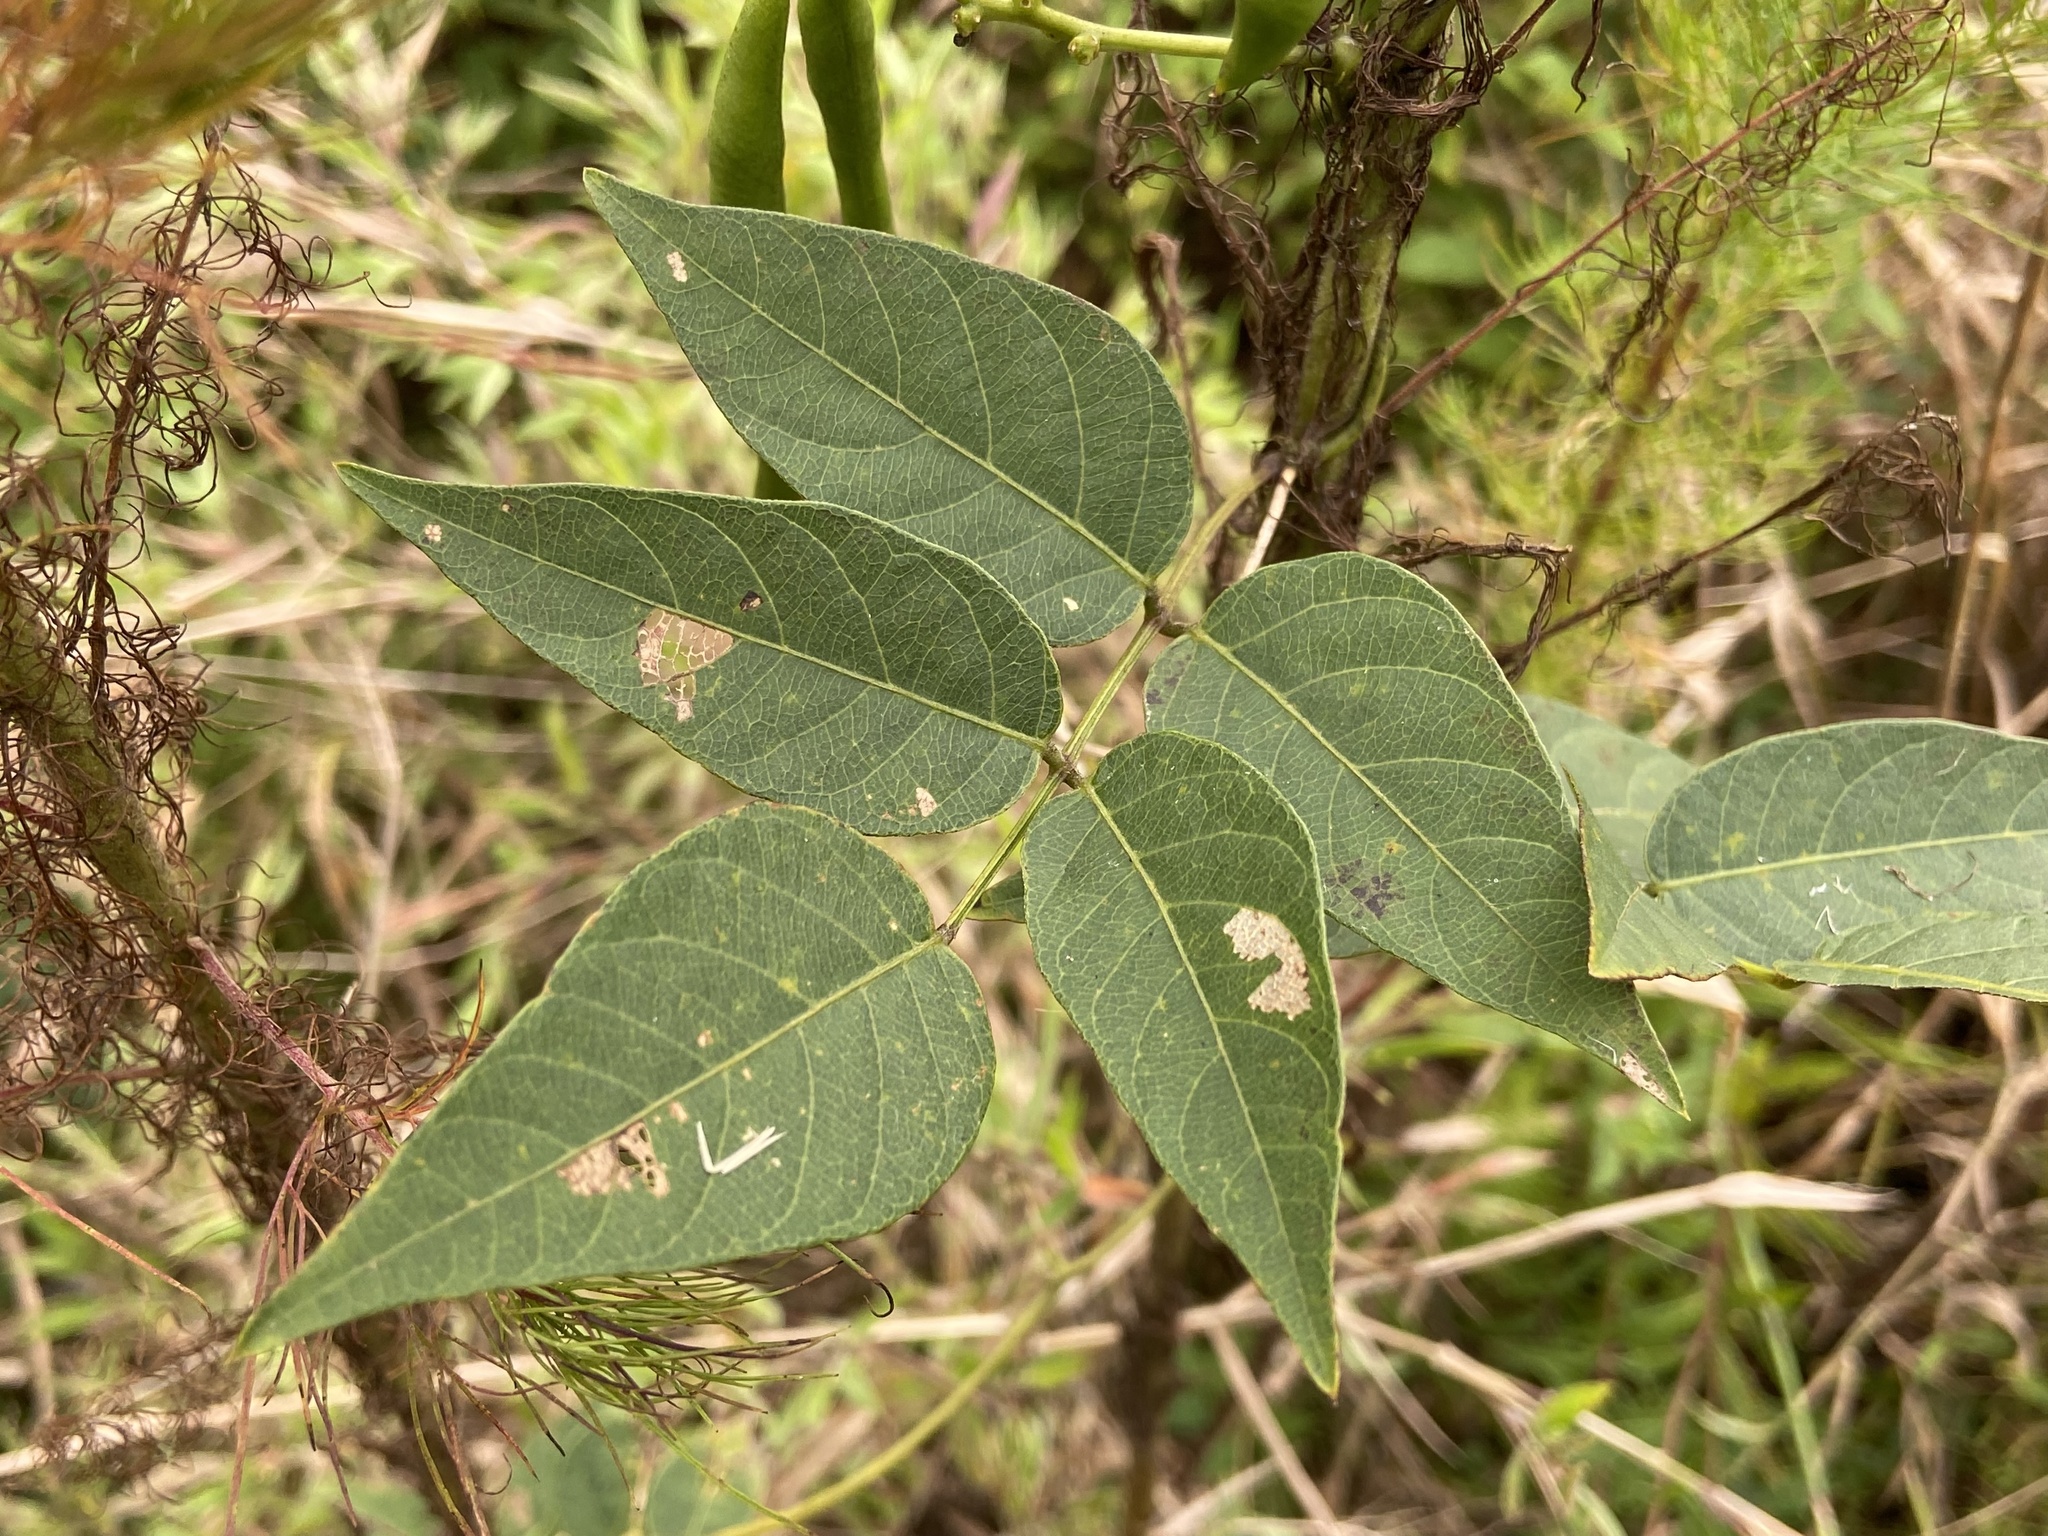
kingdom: Plantae
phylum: Tracheophyta
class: Magnoliopsida
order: Fabales
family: Fabaceae
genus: Apios
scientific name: Apios americana
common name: American potato-bean
